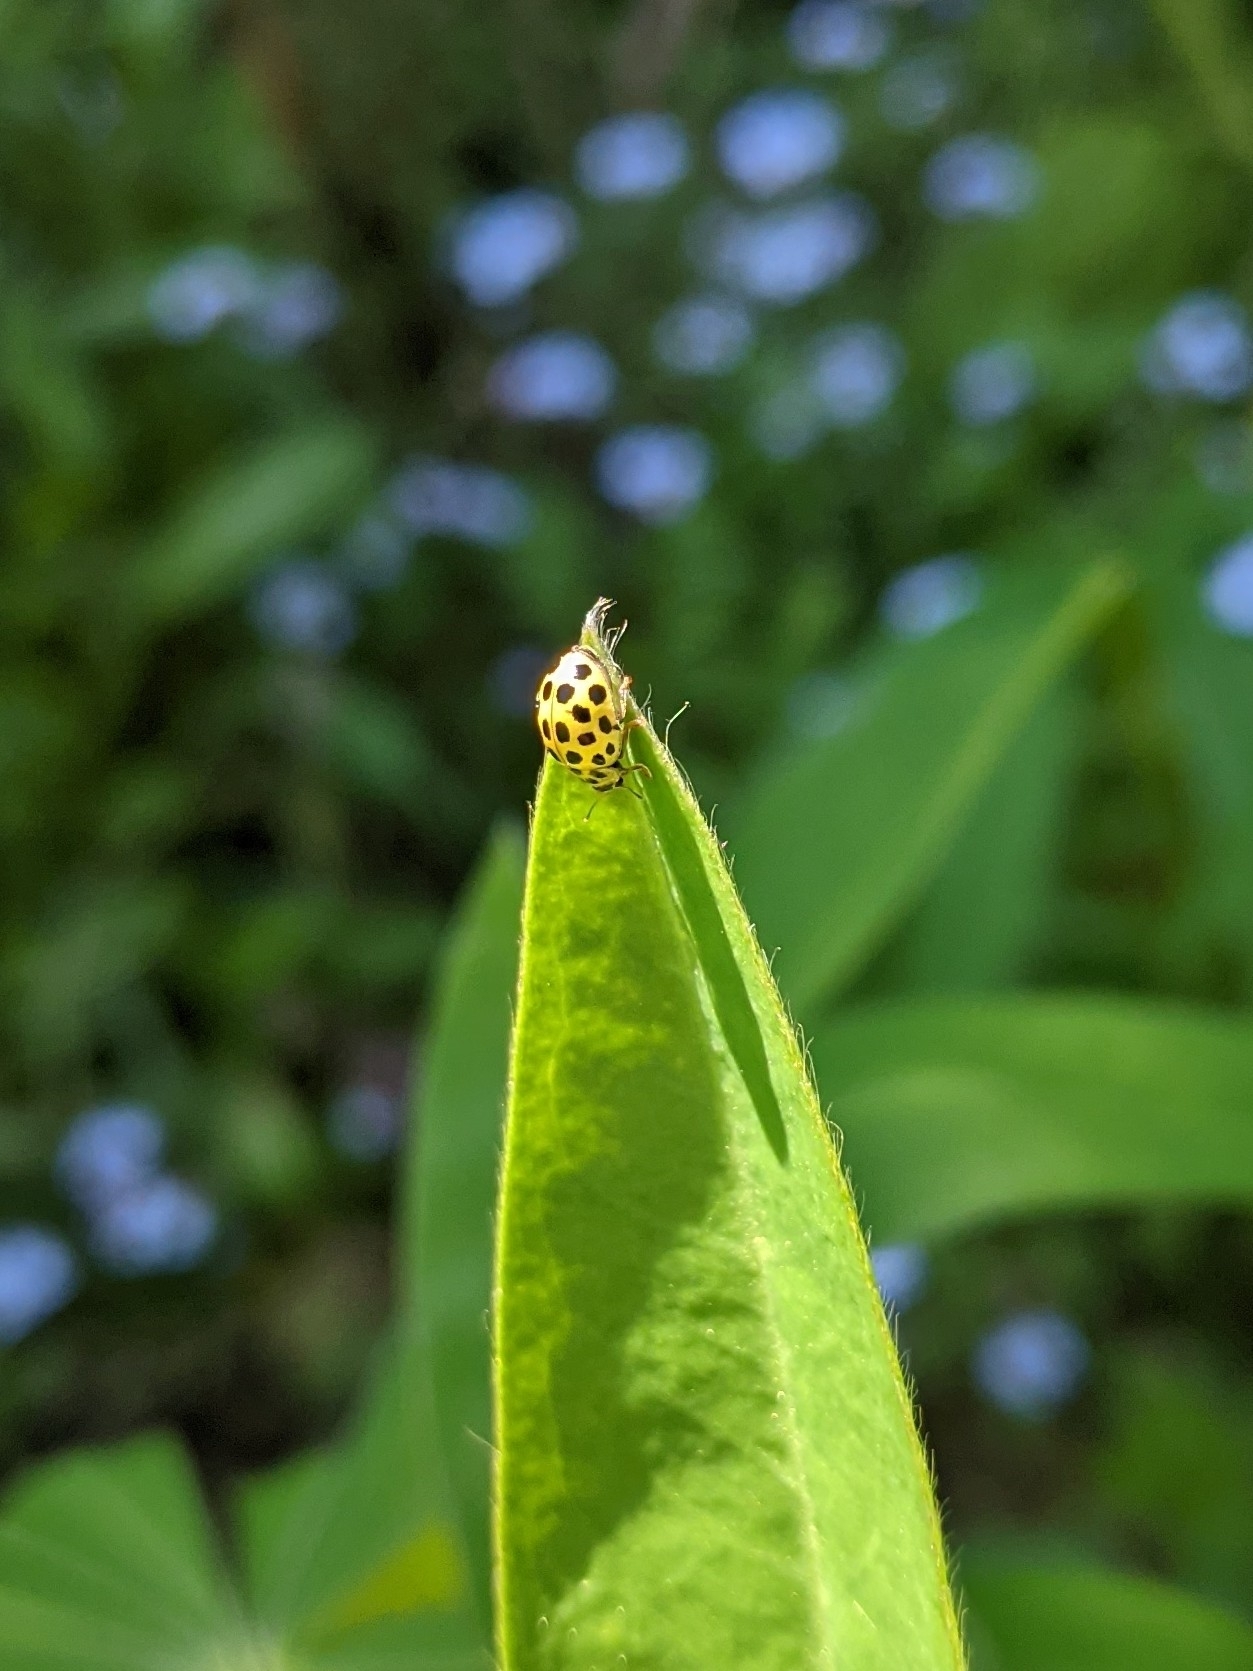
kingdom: Animalia
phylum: Arthropoda
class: Insecta
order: Coleoptera
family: Coccinellidae
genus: Psyllobora
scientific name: Psyllobora vigintiduopunctata
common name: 22-spot ladybird
